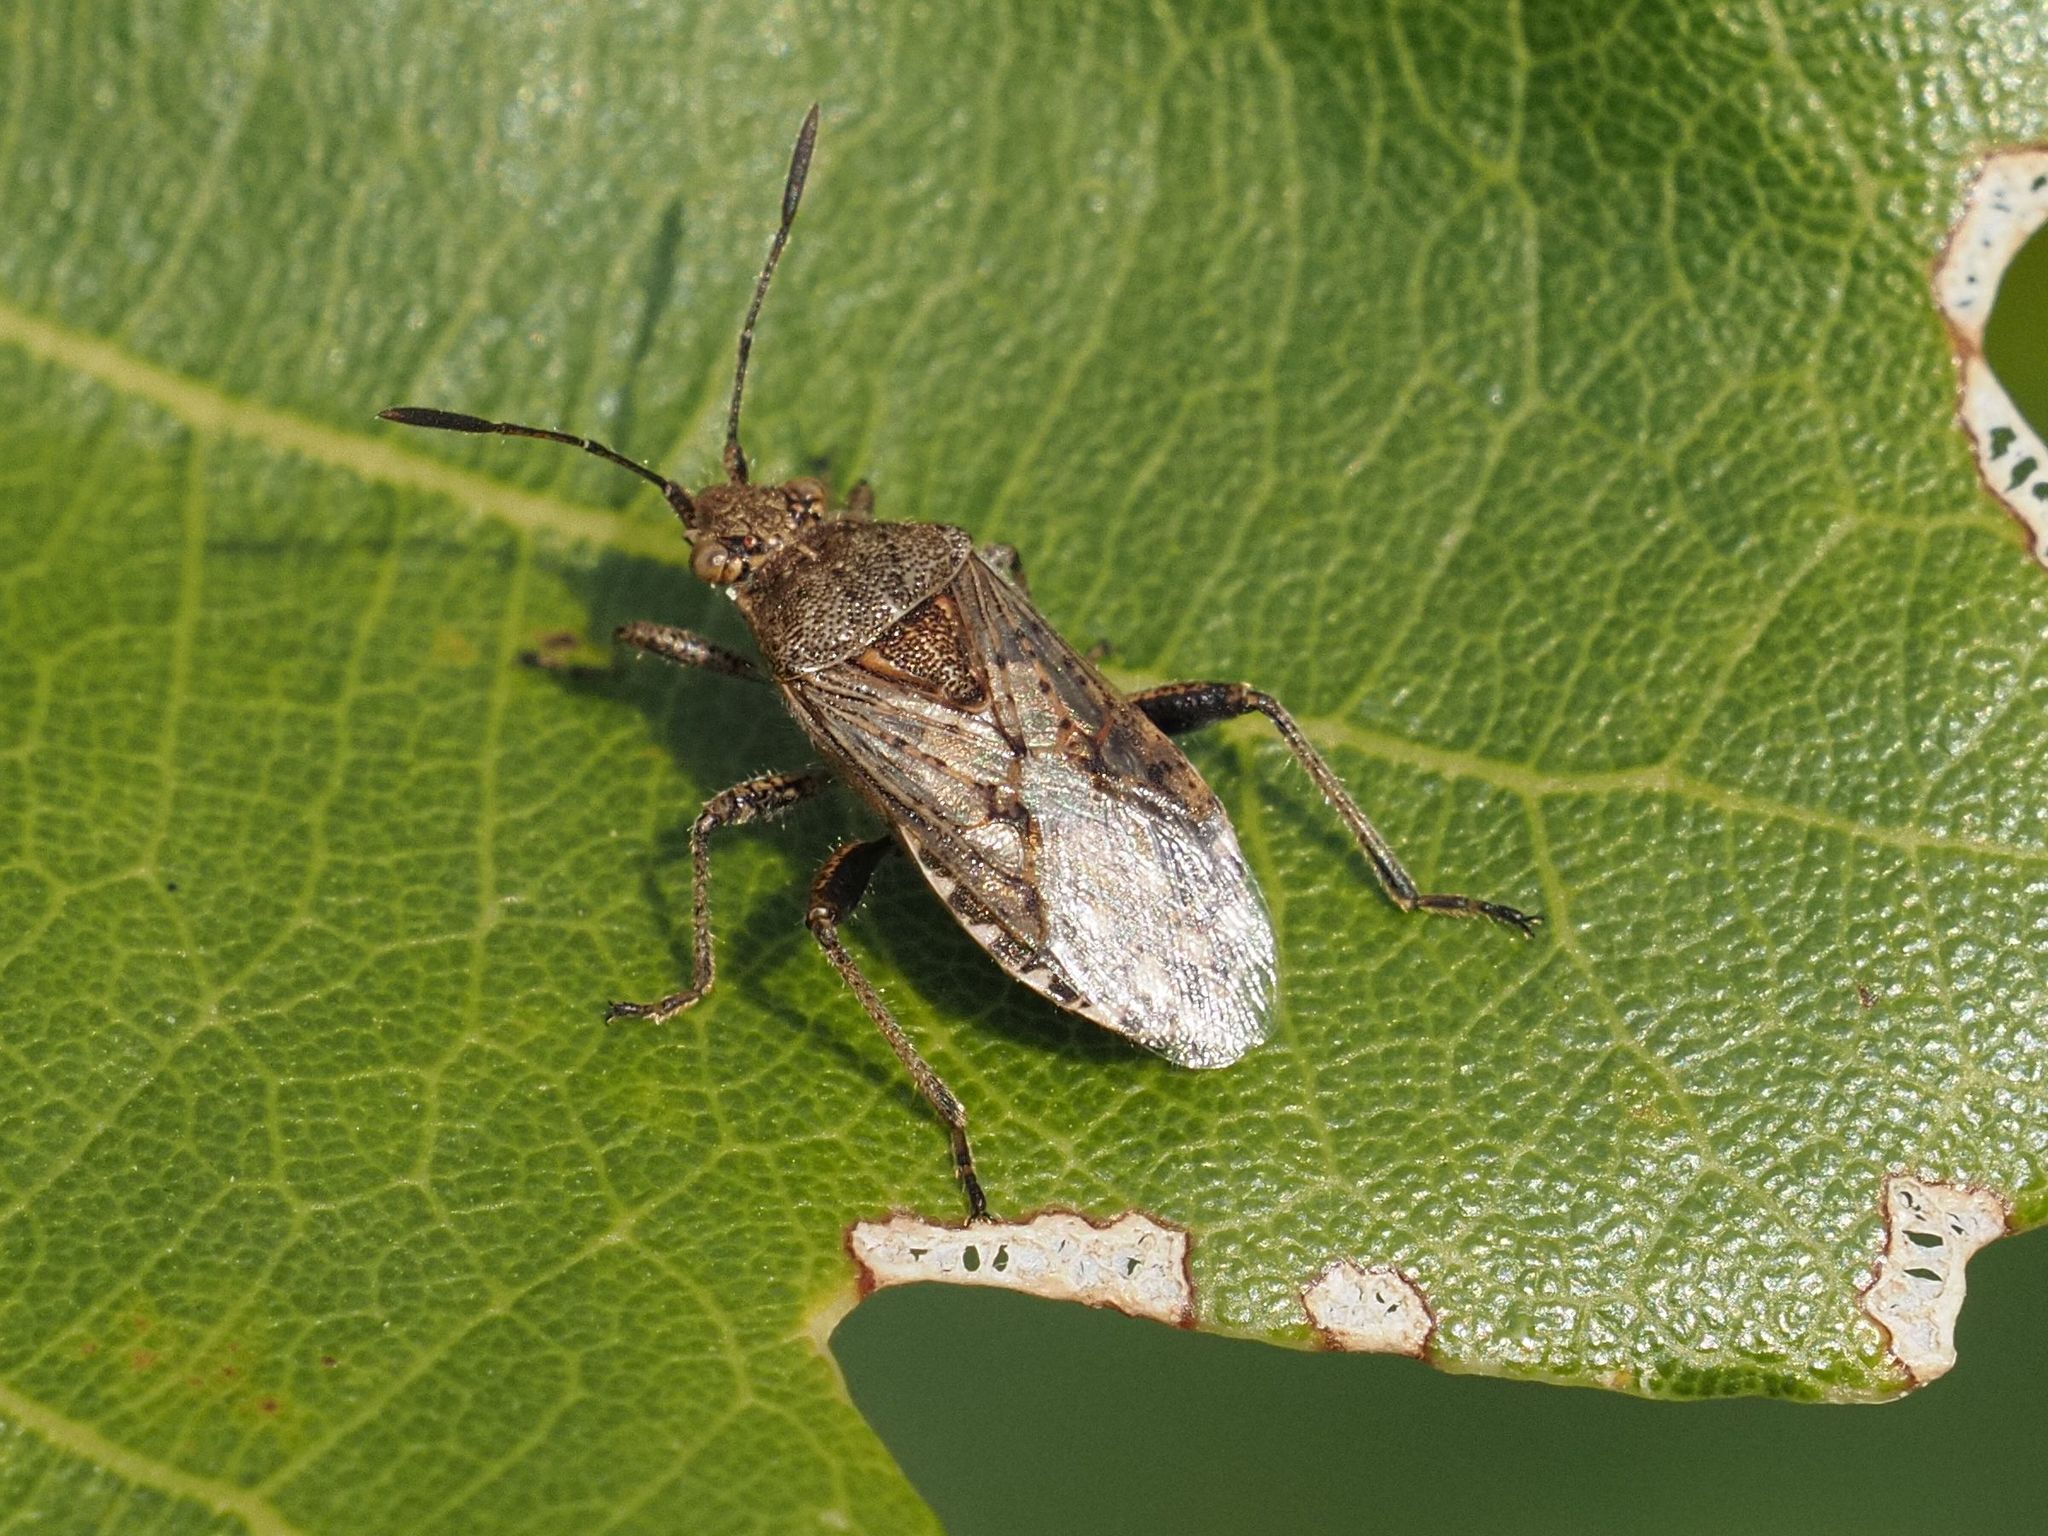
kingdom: Animalia
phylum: Arthropoda
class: Insecta
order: Hemiptera
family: Rhopalidae
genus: Stictopleurus
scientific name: Stictopleurus punctatonervosus
